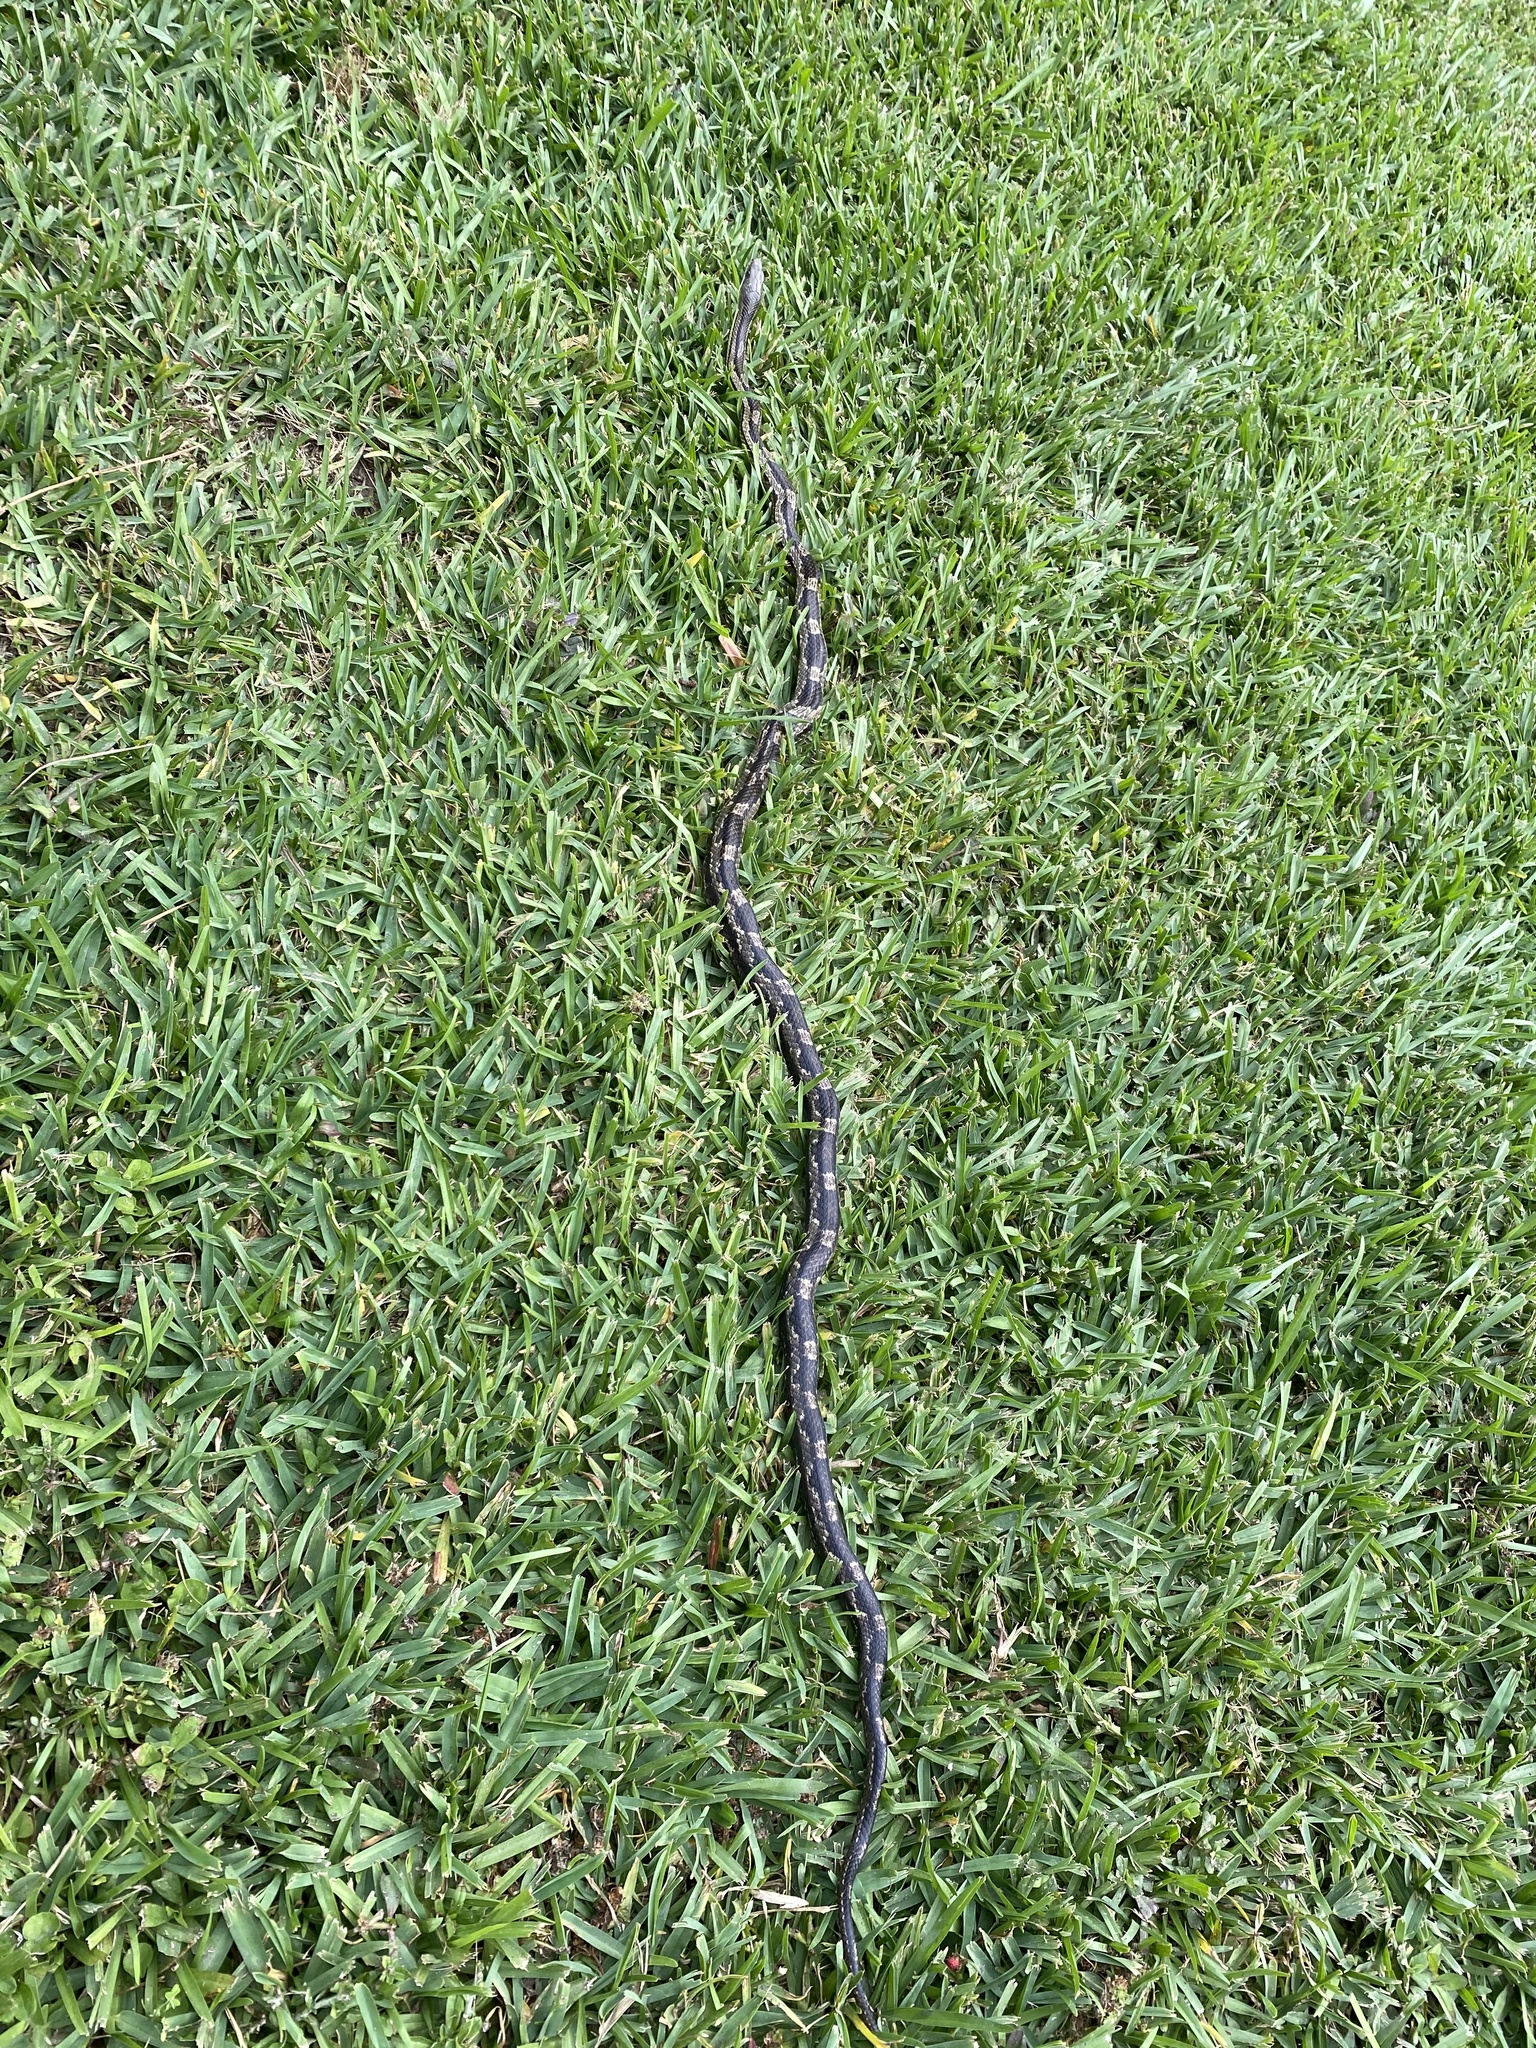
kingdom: Animalia
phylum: Chordata
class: Squamata
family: Colubridae
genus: Pantherophis
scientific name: Pantherophis spiloides
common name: Gray rat snake
